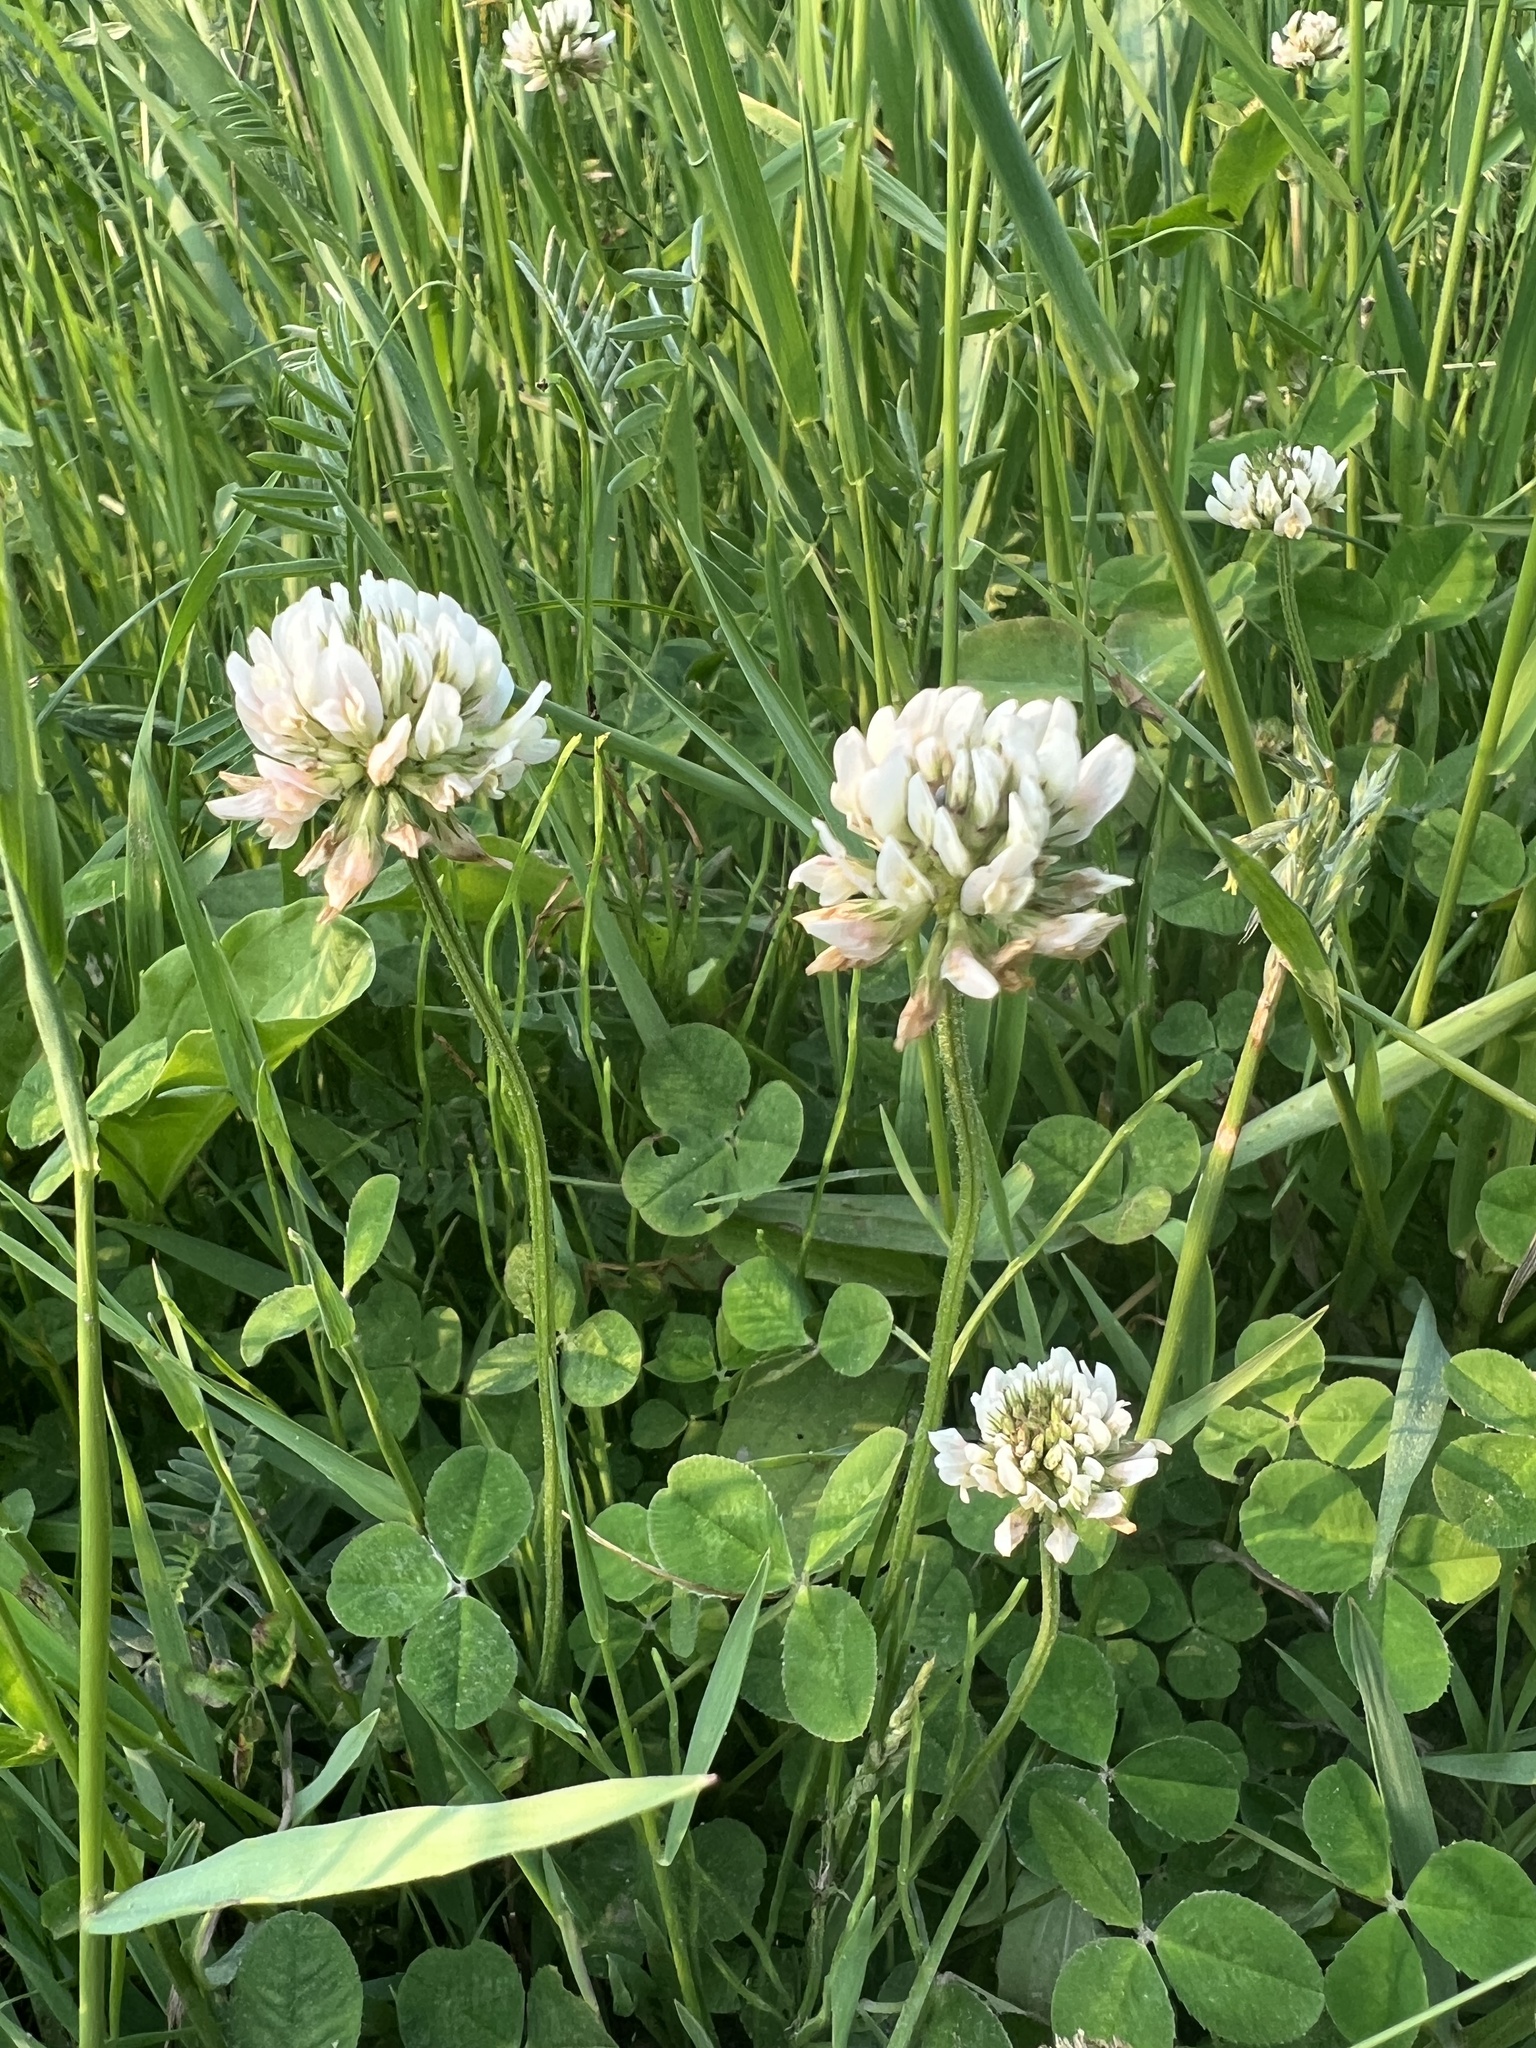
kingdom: Plantae
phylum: Tracheophyta
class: Magnoliopsida
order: Fabales
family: Fabaceae
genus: Trifolium
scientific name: Trifolium repens
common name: White clover
